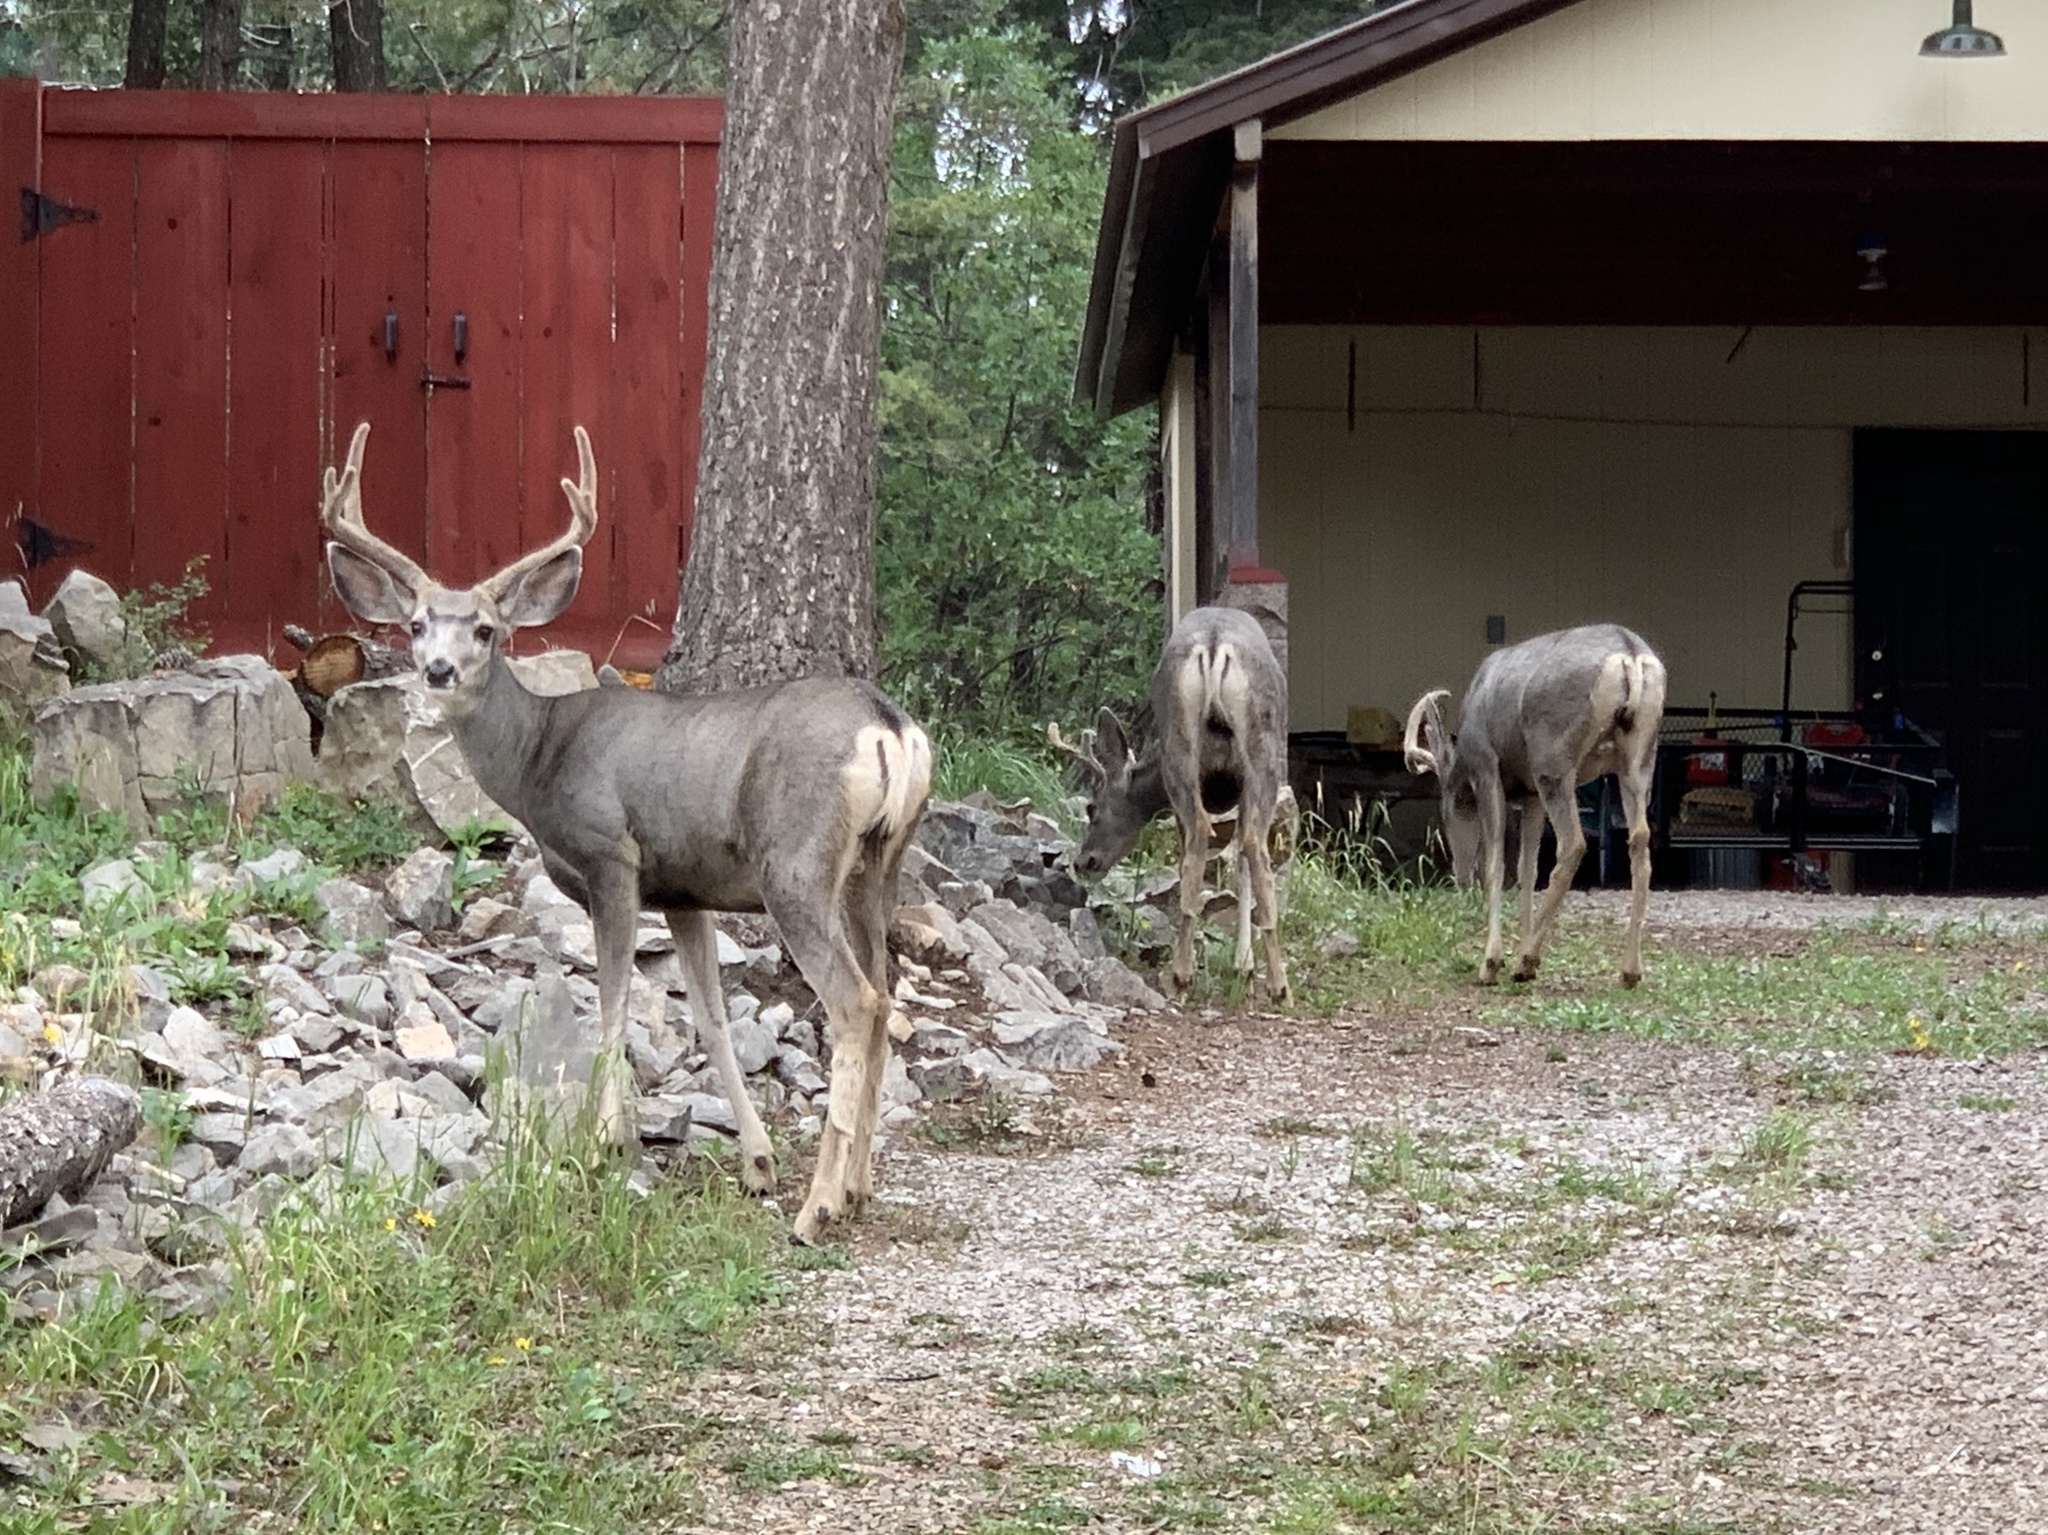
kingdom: Animalia
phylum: Chordata
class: Mammalia
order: Artiodactyla
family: Cervidae
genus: Odocoileus
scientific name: Odocoileus hemionus
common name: Mule deer
